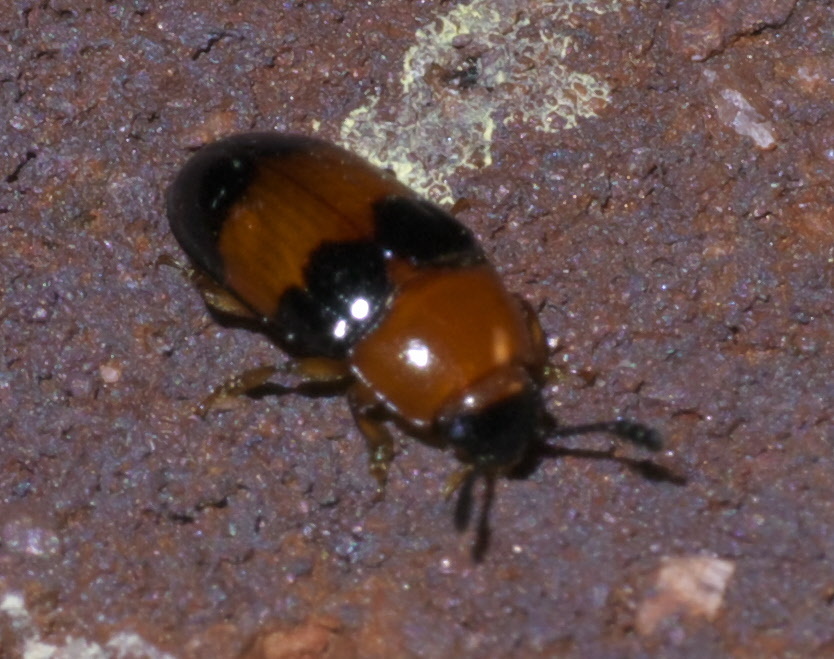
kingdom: Animalia
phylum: Arthropoda
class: Insecta
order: Coleoptera
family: Erotylidae
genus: Triplax
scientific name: Triplax festiva
